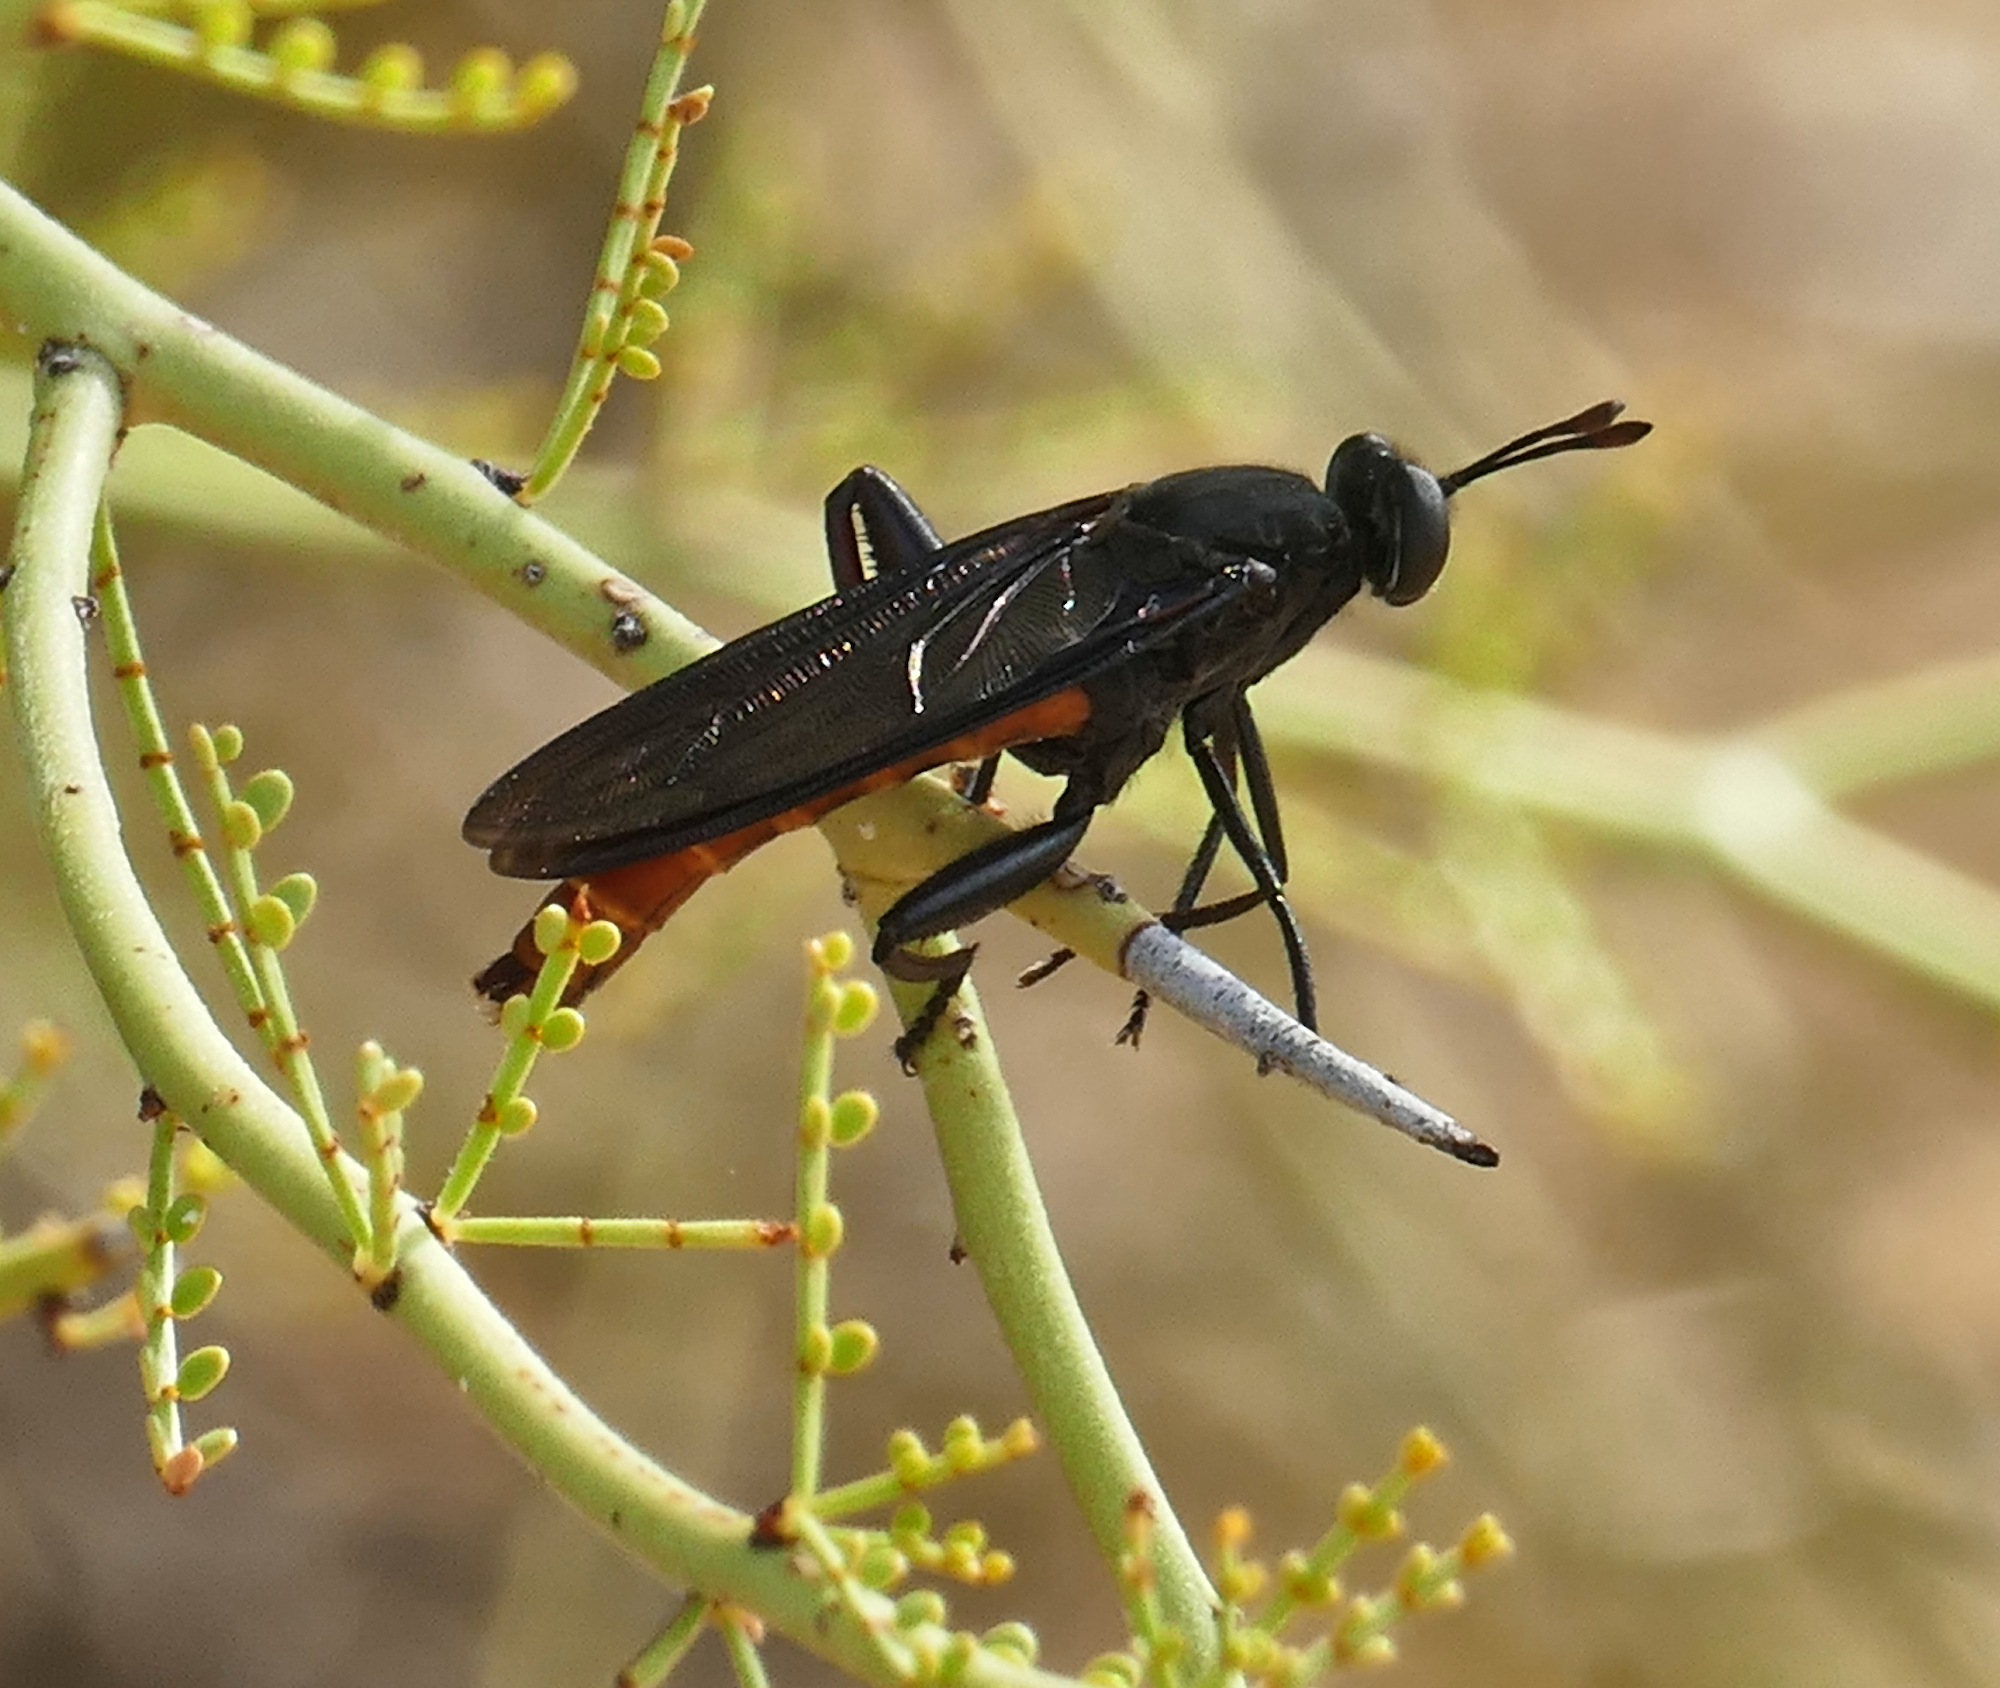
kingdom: Animalia
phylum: Arthropoda
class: Insecta
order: Diptera
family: Mydidae
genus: Mydas
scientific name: Mydas ventralis
